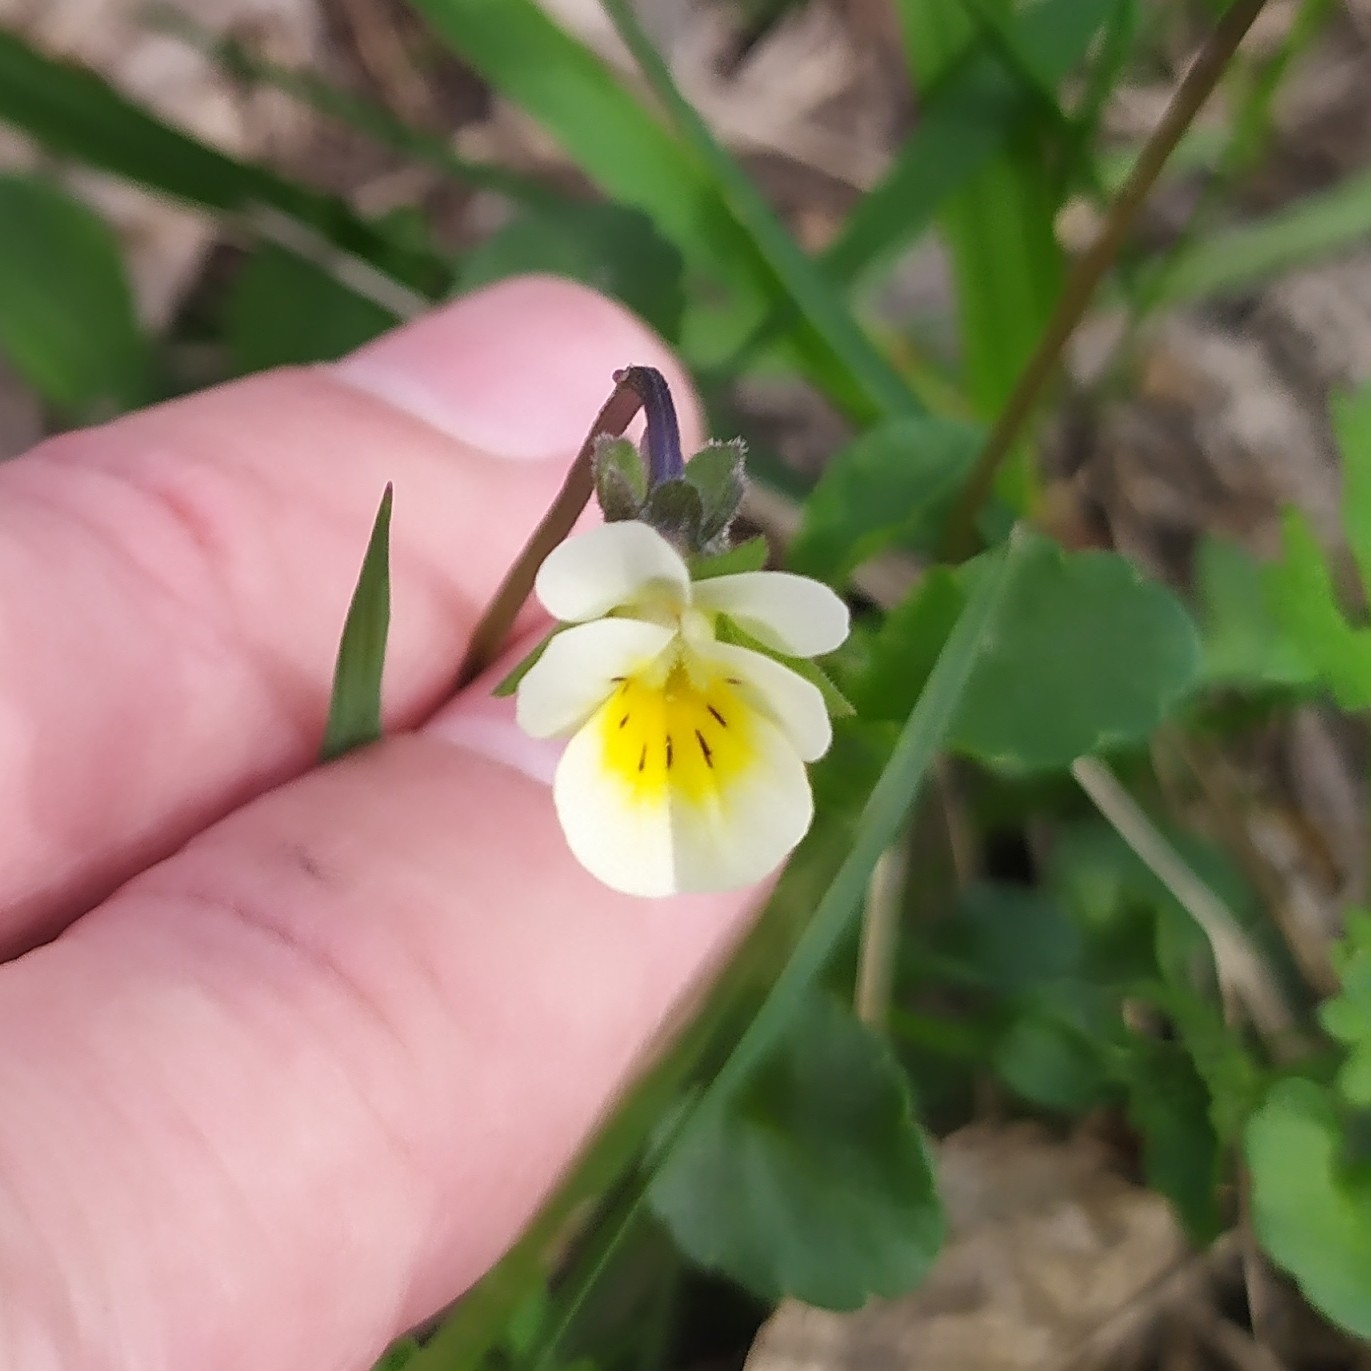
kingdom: Plantae
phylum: Tracheophyta
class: Magnoliopsida
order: Malpighiales
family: Violaceae
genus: Viola
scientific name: Viola arvensis
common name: Field pansy
